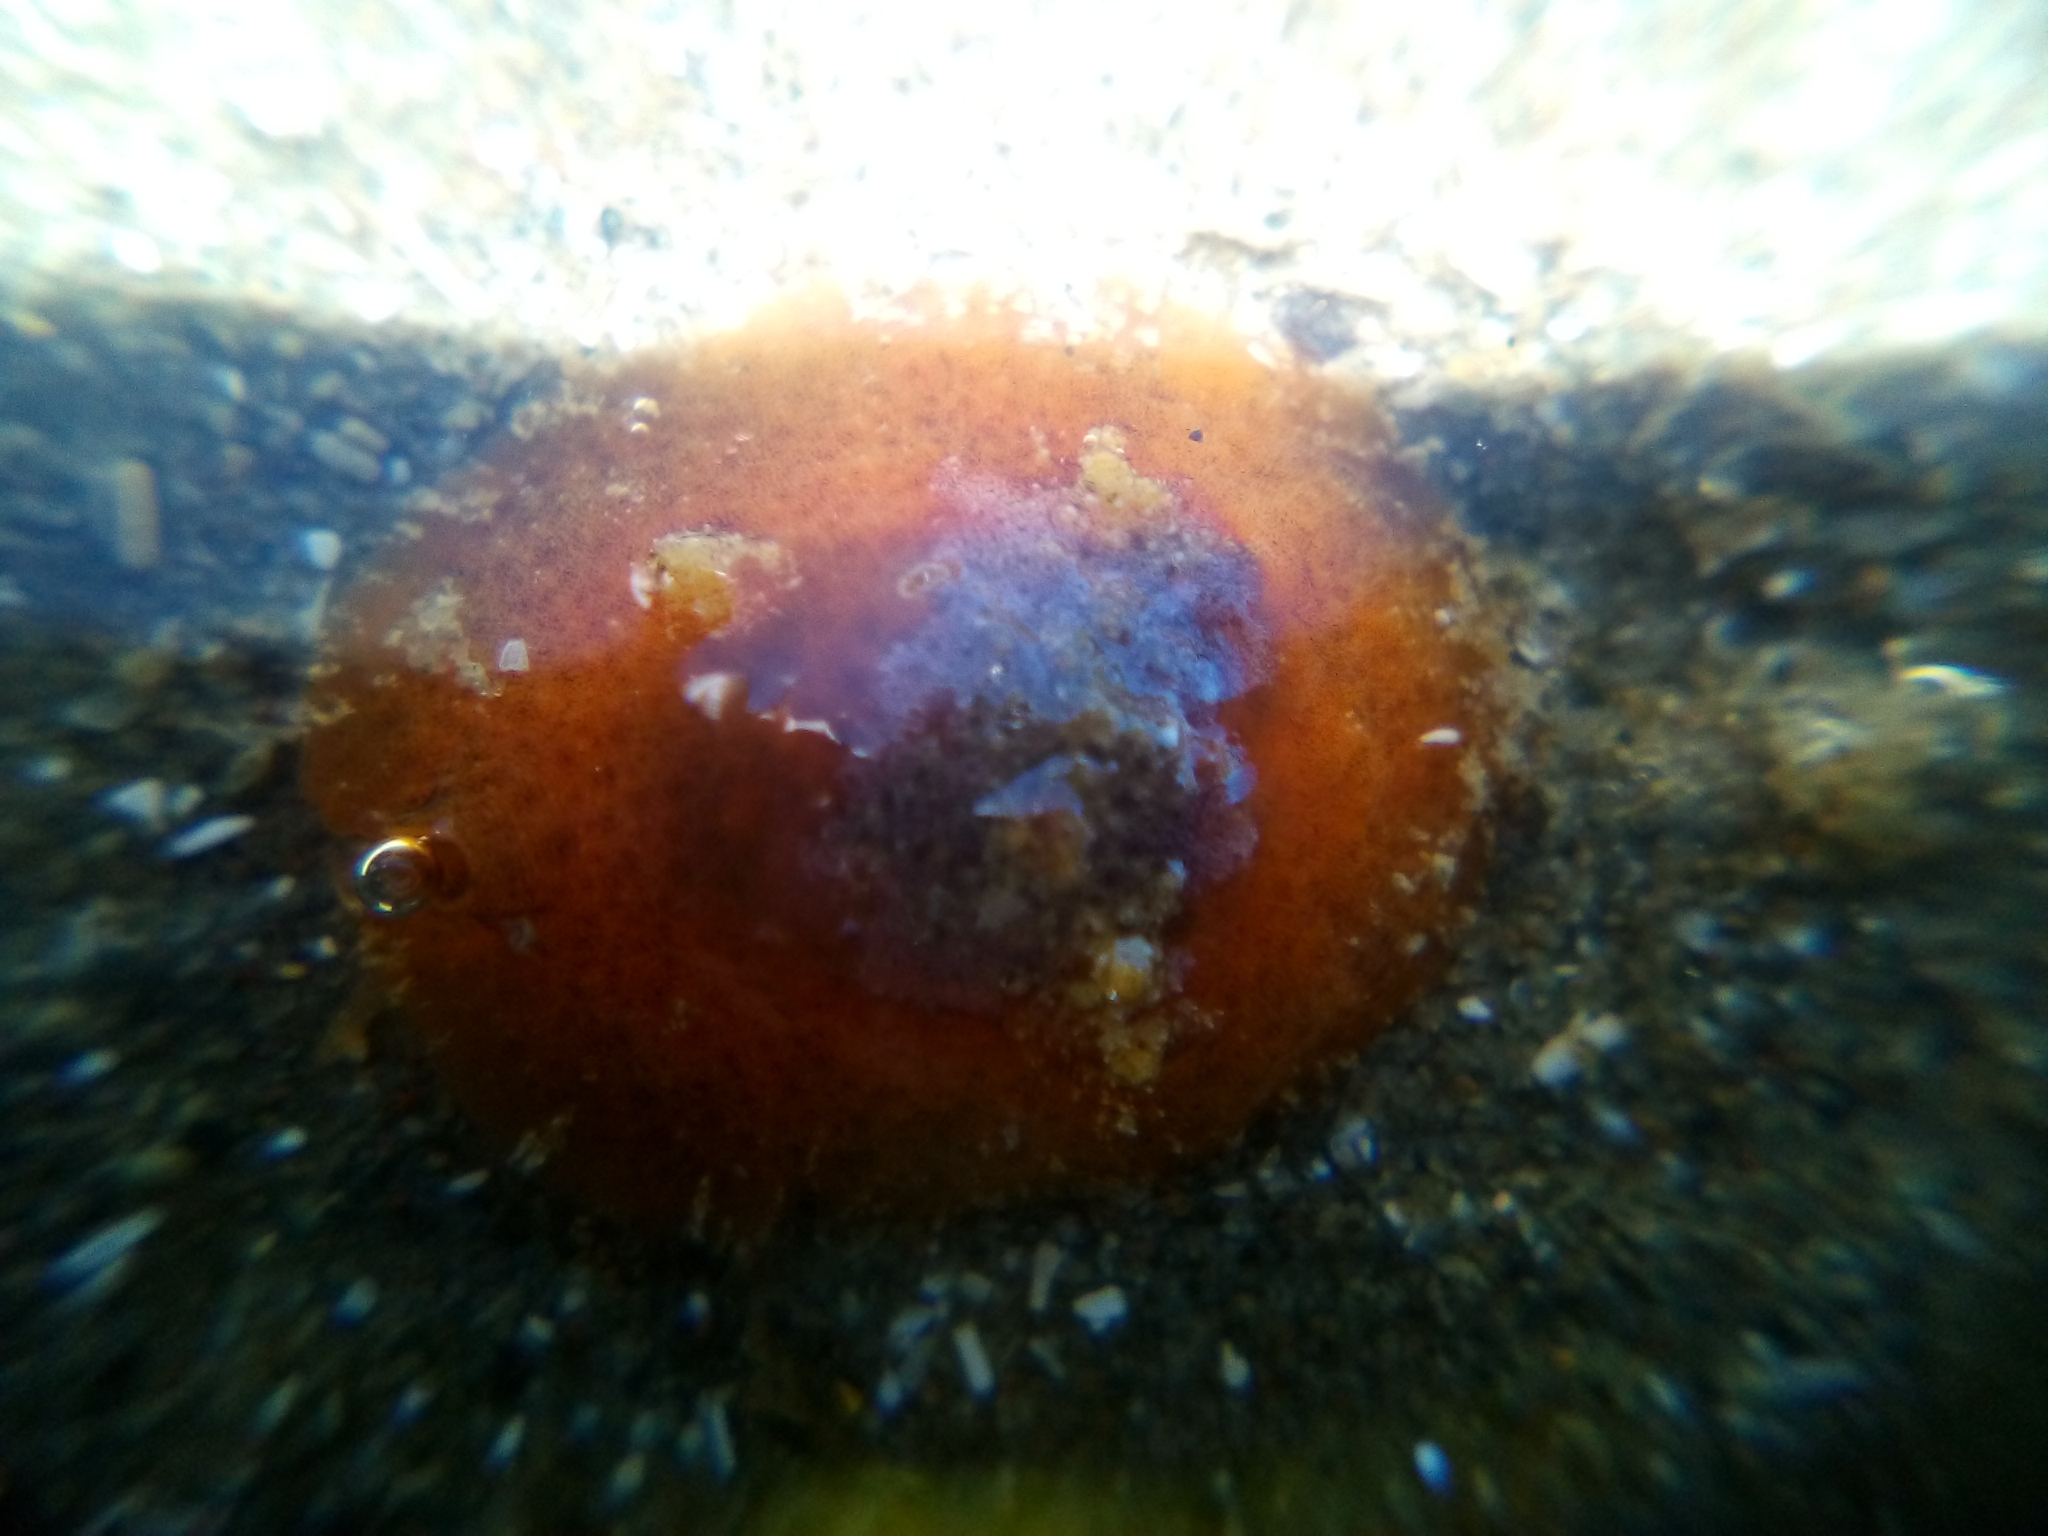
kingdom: Animalia
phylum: Mollusca
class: Gastropoda
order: Littorinimorpha
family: Velutinidae
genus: Lamellaria
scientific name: Lamellaria ophione
